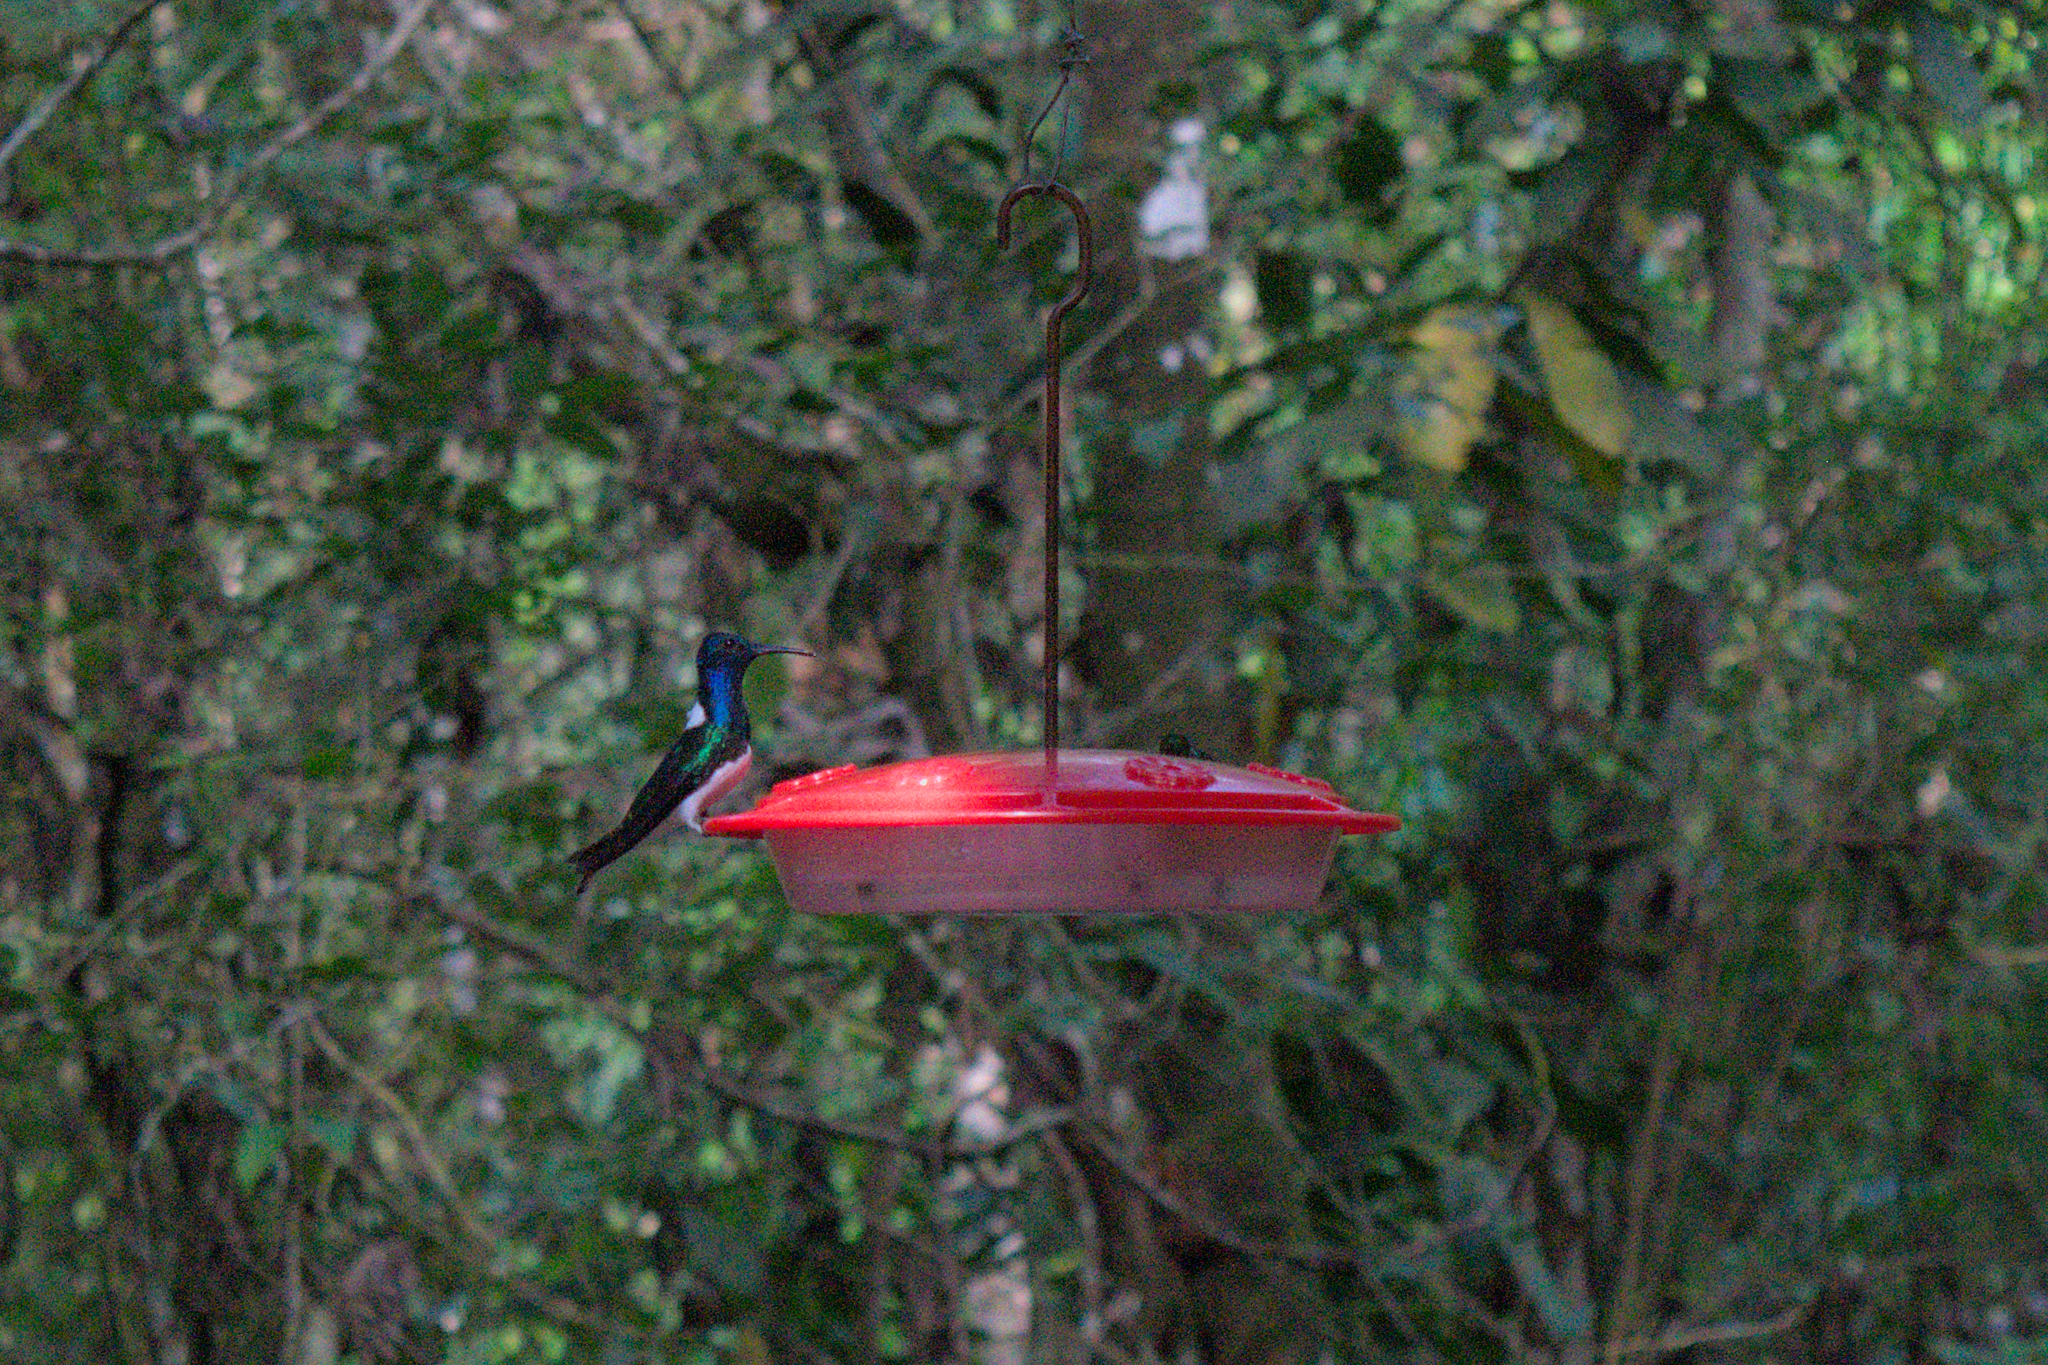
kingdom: Animalia
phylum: Chordata
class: Aves
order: Apodiformes
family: Trochilidae
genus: Florisuga
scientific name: Florisuga mellivora
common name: White-necked jacobin
